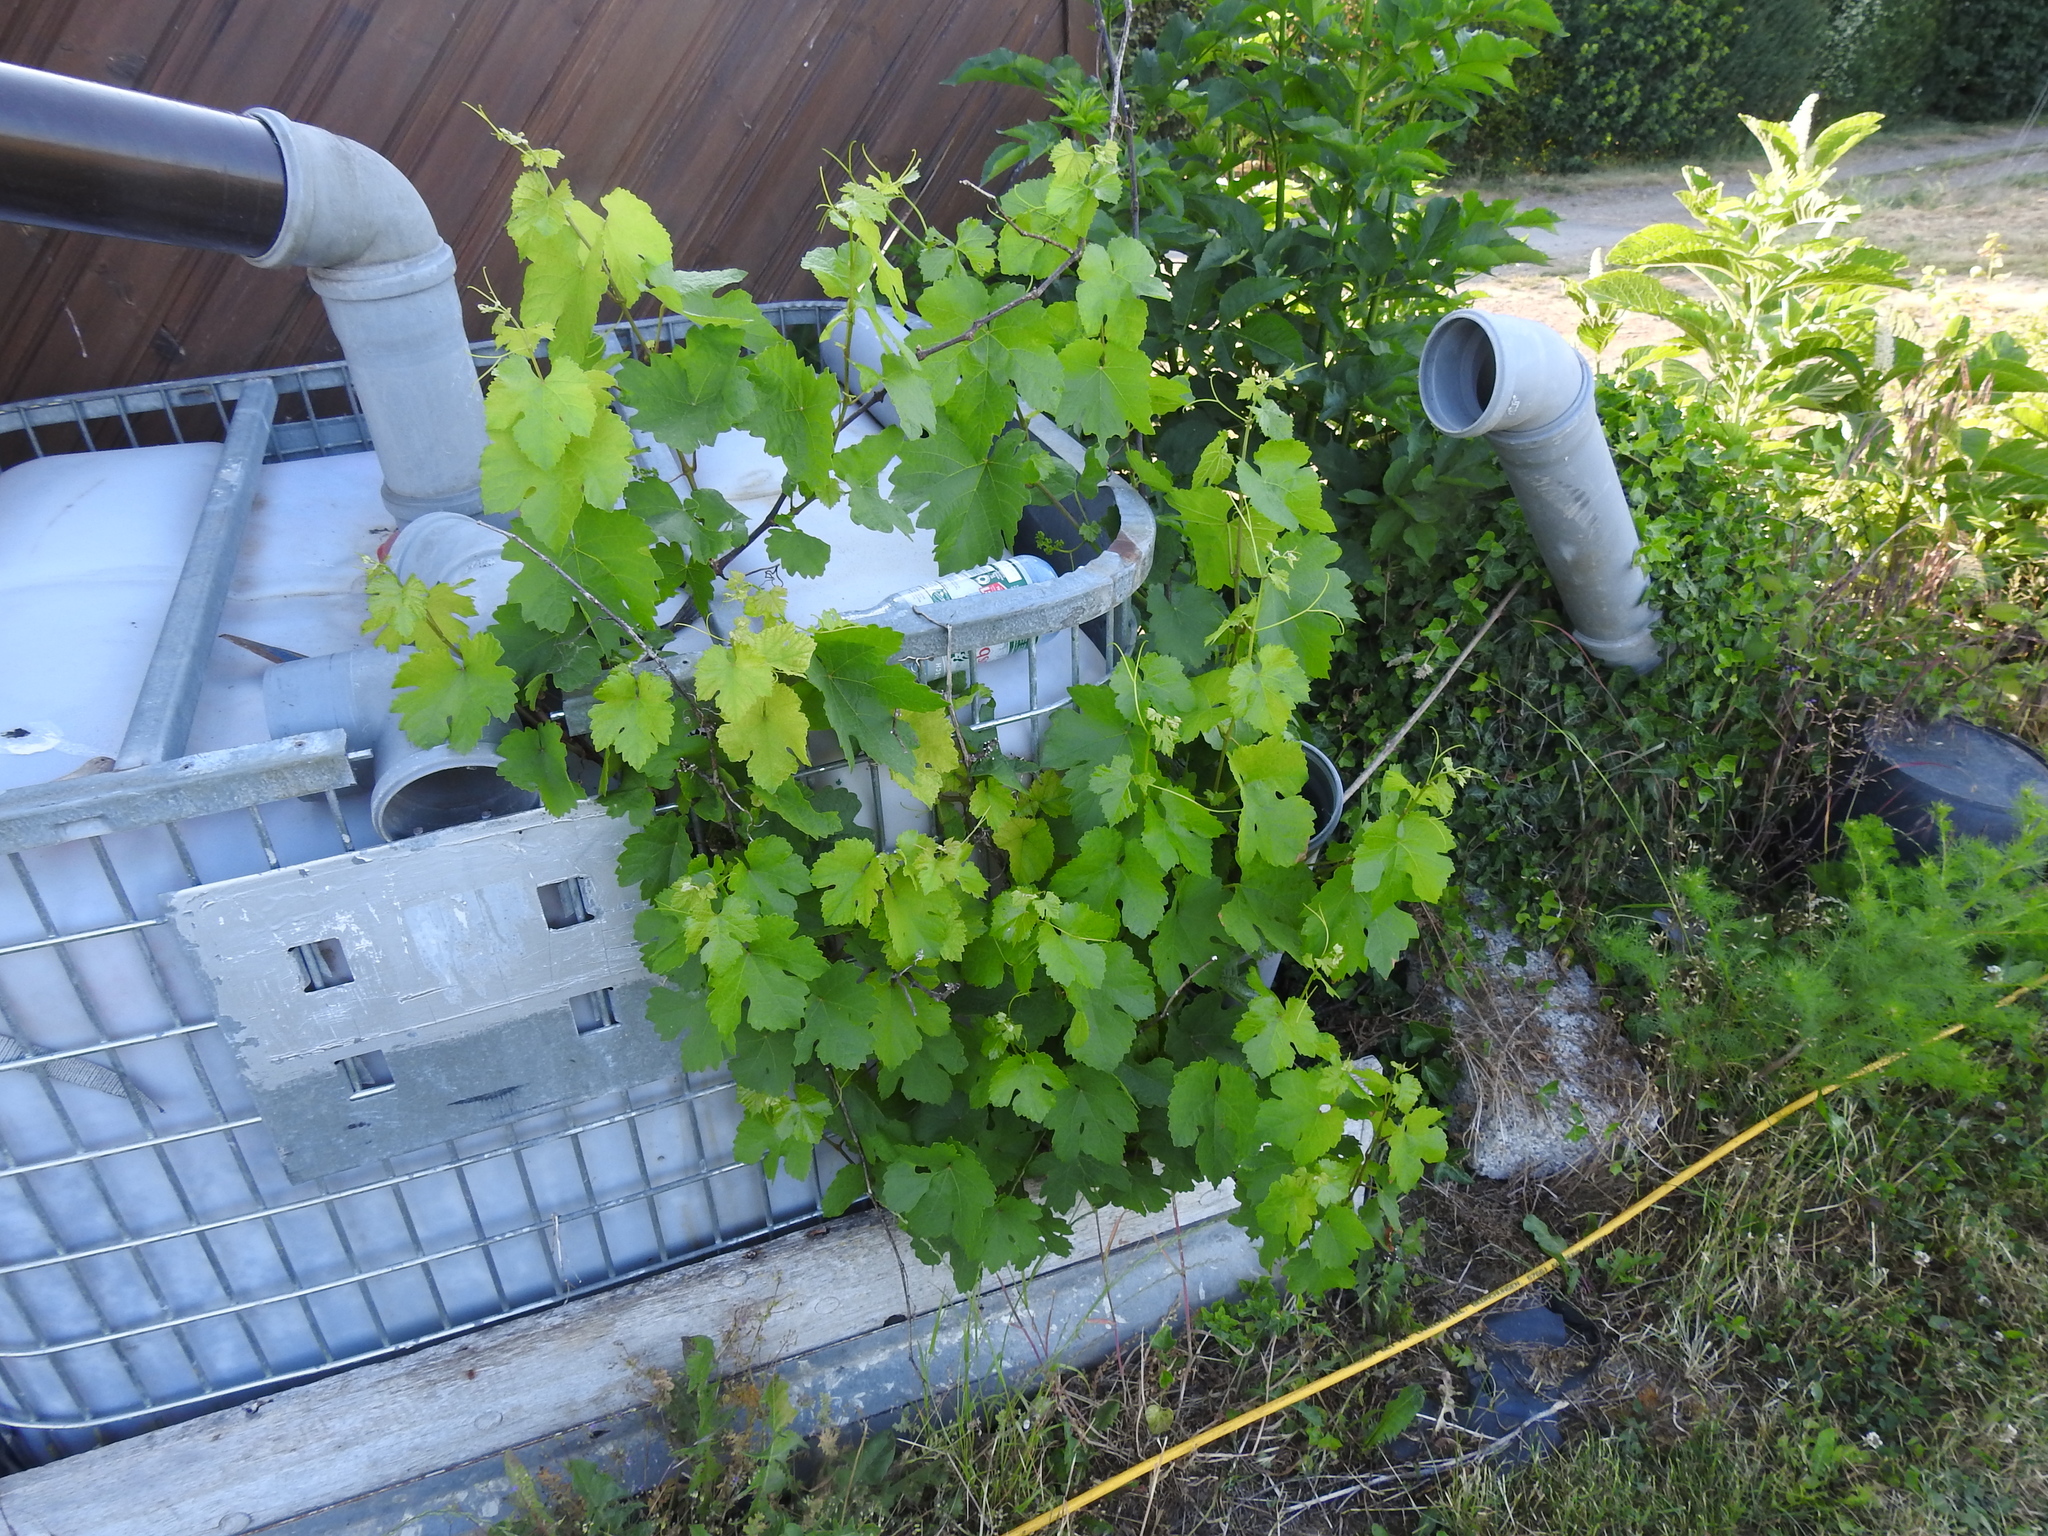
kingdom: Plantae
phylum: Tracheophyta
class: Magnoliopsida
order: Vitales
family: Vitaceae
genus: Vitis
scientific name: Vitis vinifera
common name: Grape-vine
